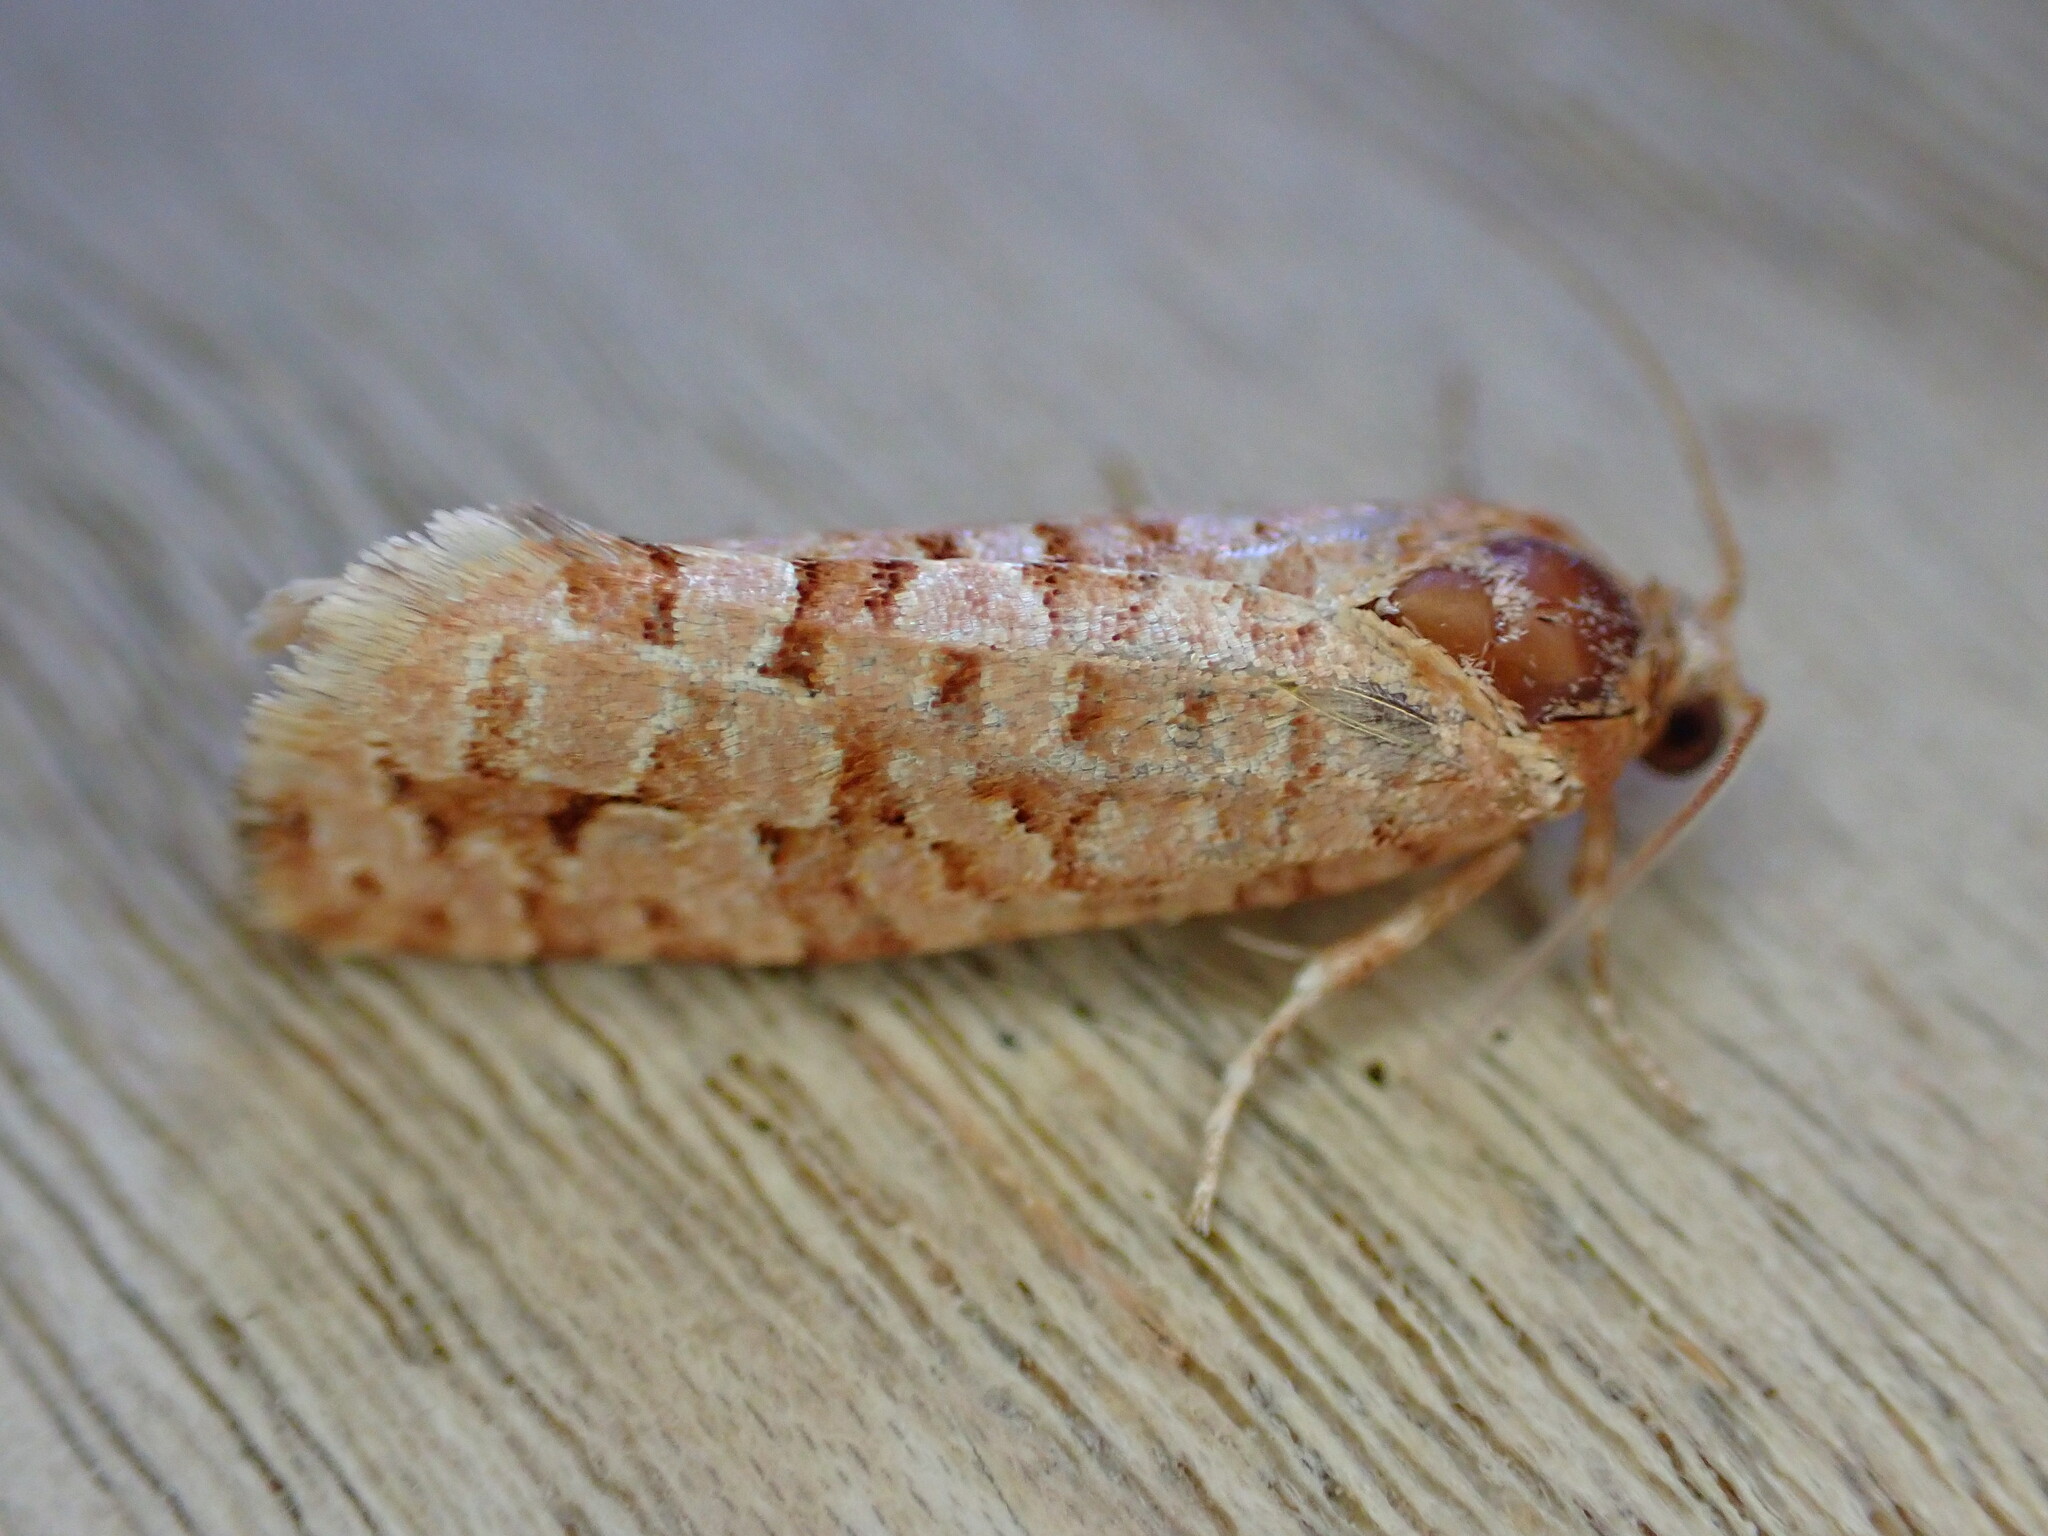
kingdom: Animalia
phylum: Arthropoda
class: Insecta
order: Lepidoptera
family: Tortricidae
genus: Lozotaeniodes
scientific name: Lozotaeniodes formosana
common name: Orange pine twist
